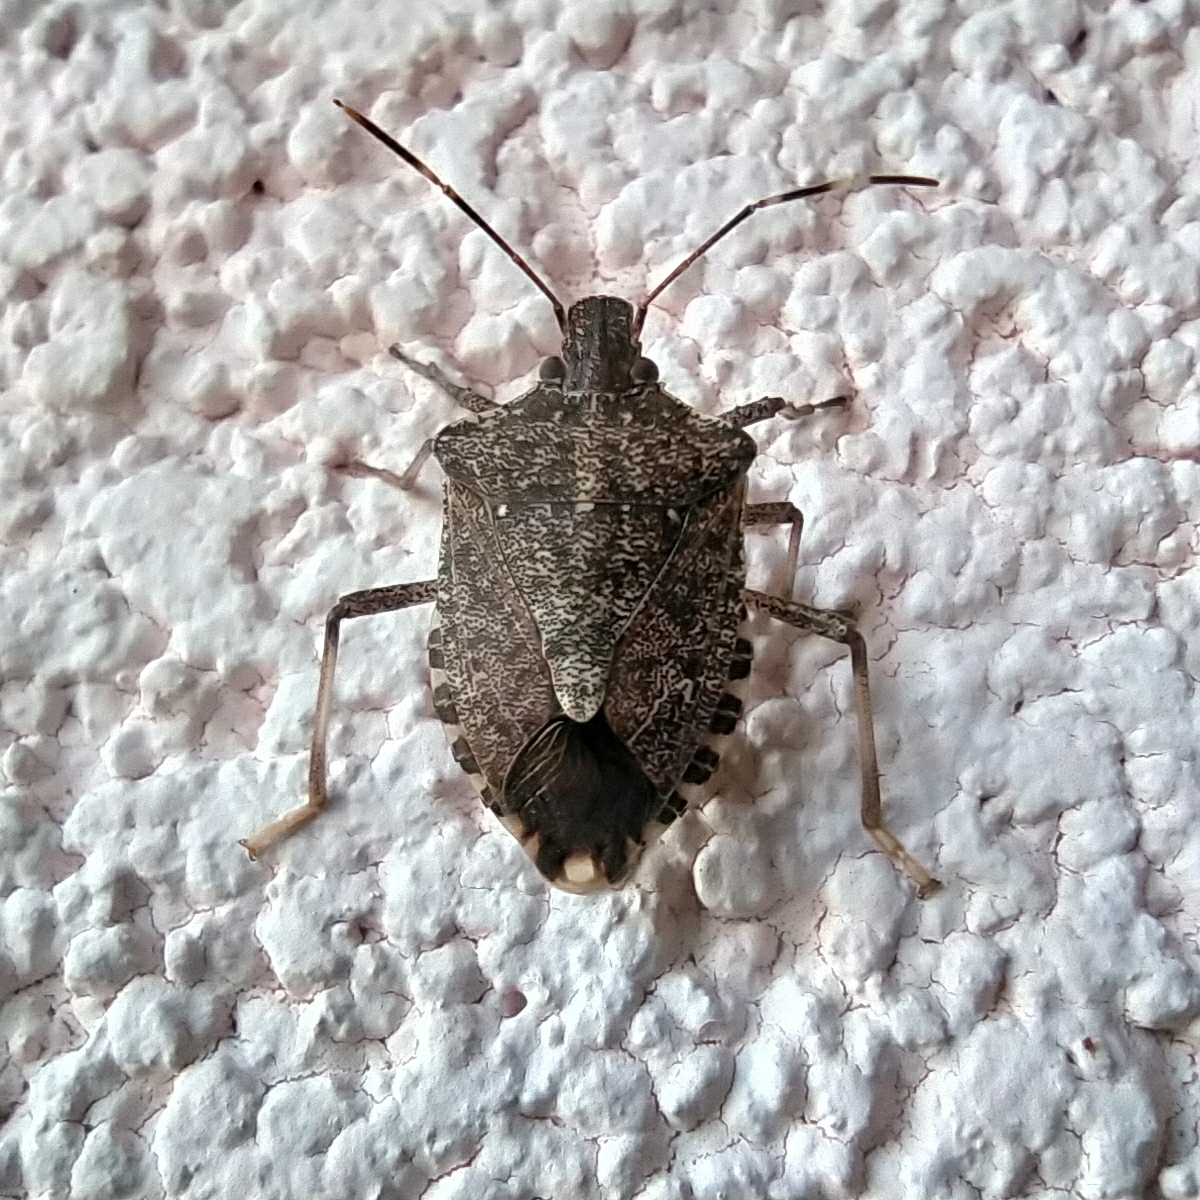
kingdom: Animalia
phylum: Arthropoda
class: Insecta
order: Hemiptera
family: Pentatomidae
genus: Halyomorpha
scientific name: Halyomorpha halys
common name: Brown marmorated stink bug
